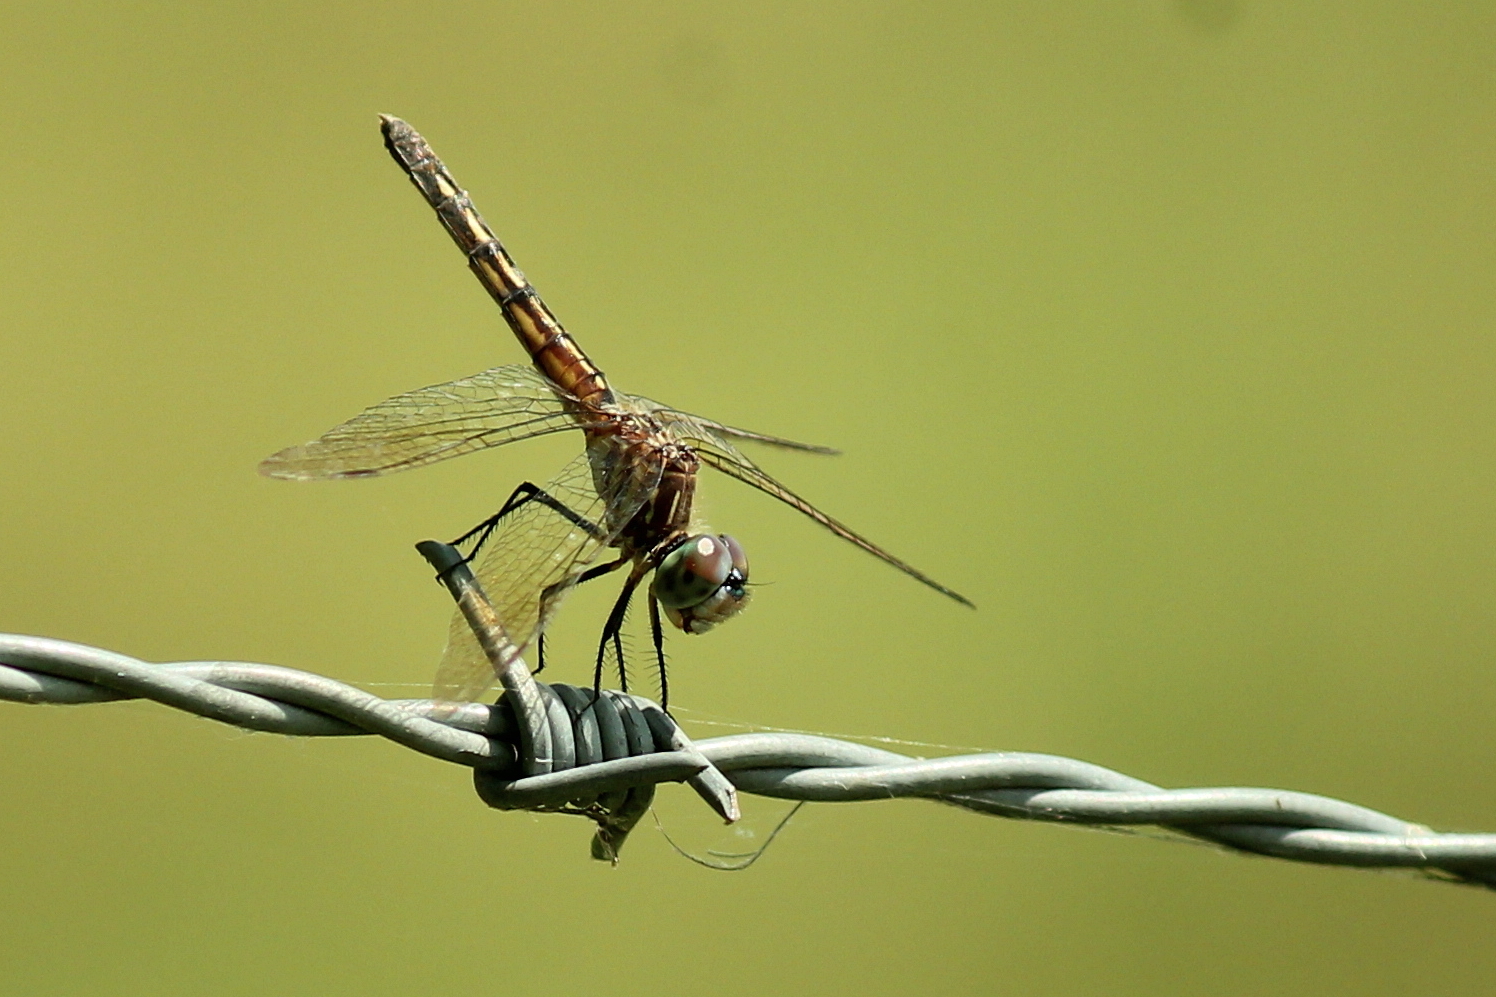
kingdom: Animalia
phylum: Arthropoda
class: Insecta
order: Odonata
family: Libellulidae
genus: Pachydiplax
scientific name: Pachydiplax longipennis
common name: Blue dasher
